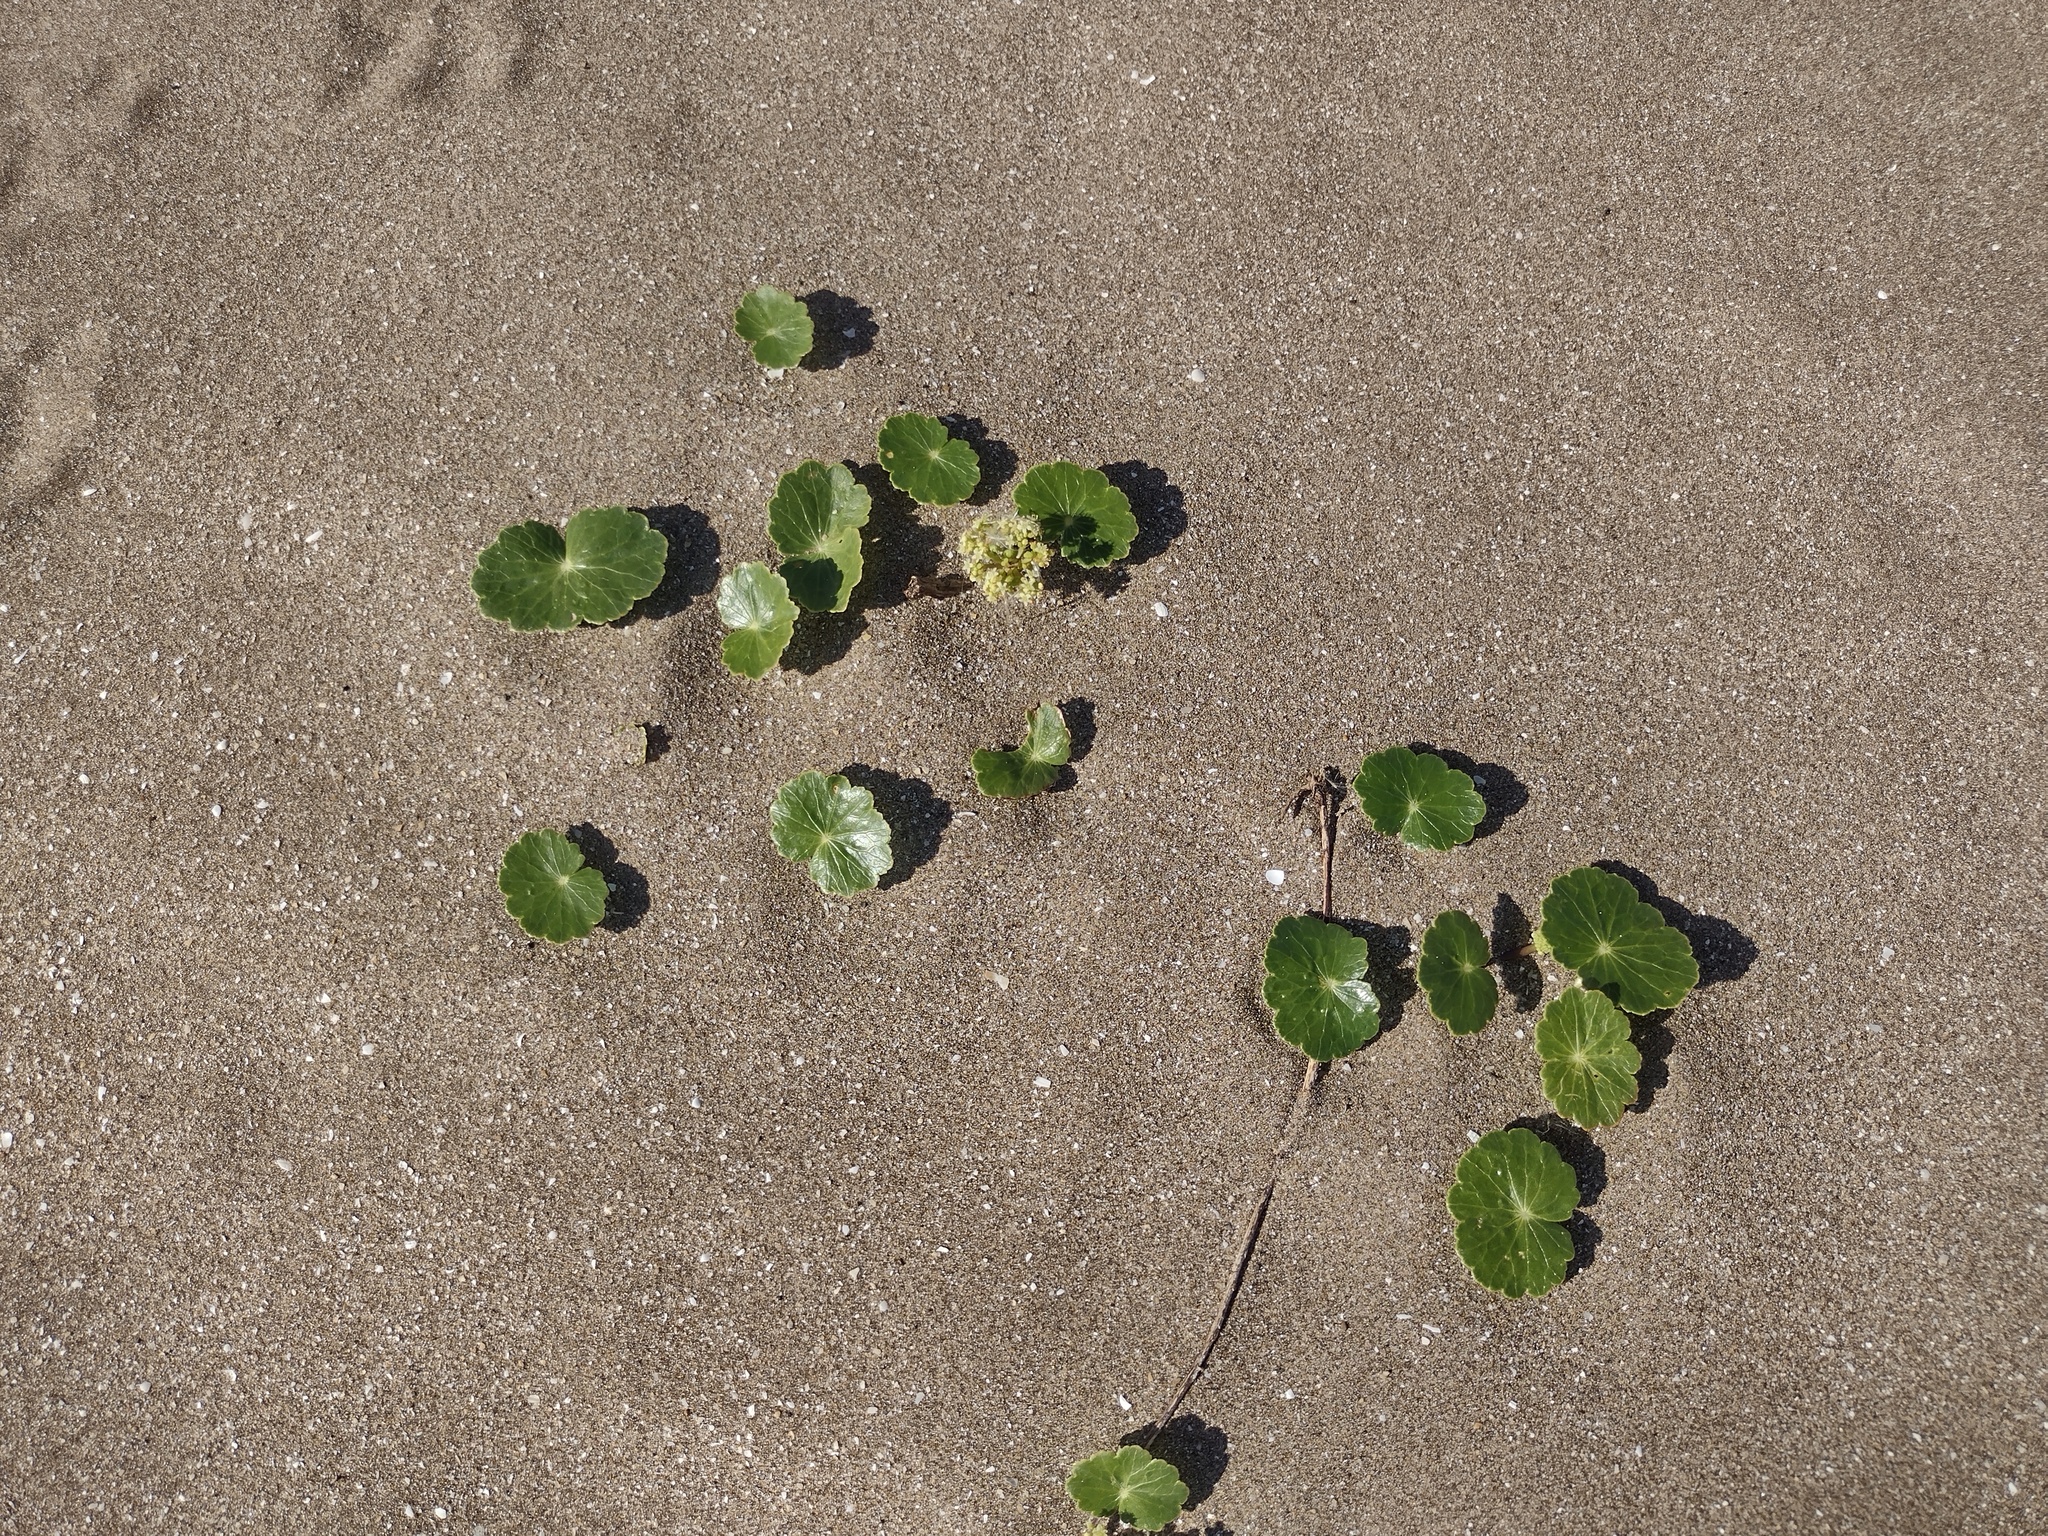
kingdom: Plantae
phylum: Tracheophyta
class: Magnoliopsida
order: Apiales
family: Araliaceae
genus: Hydrocotyle
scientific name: Hydrocotyle bonariensis
